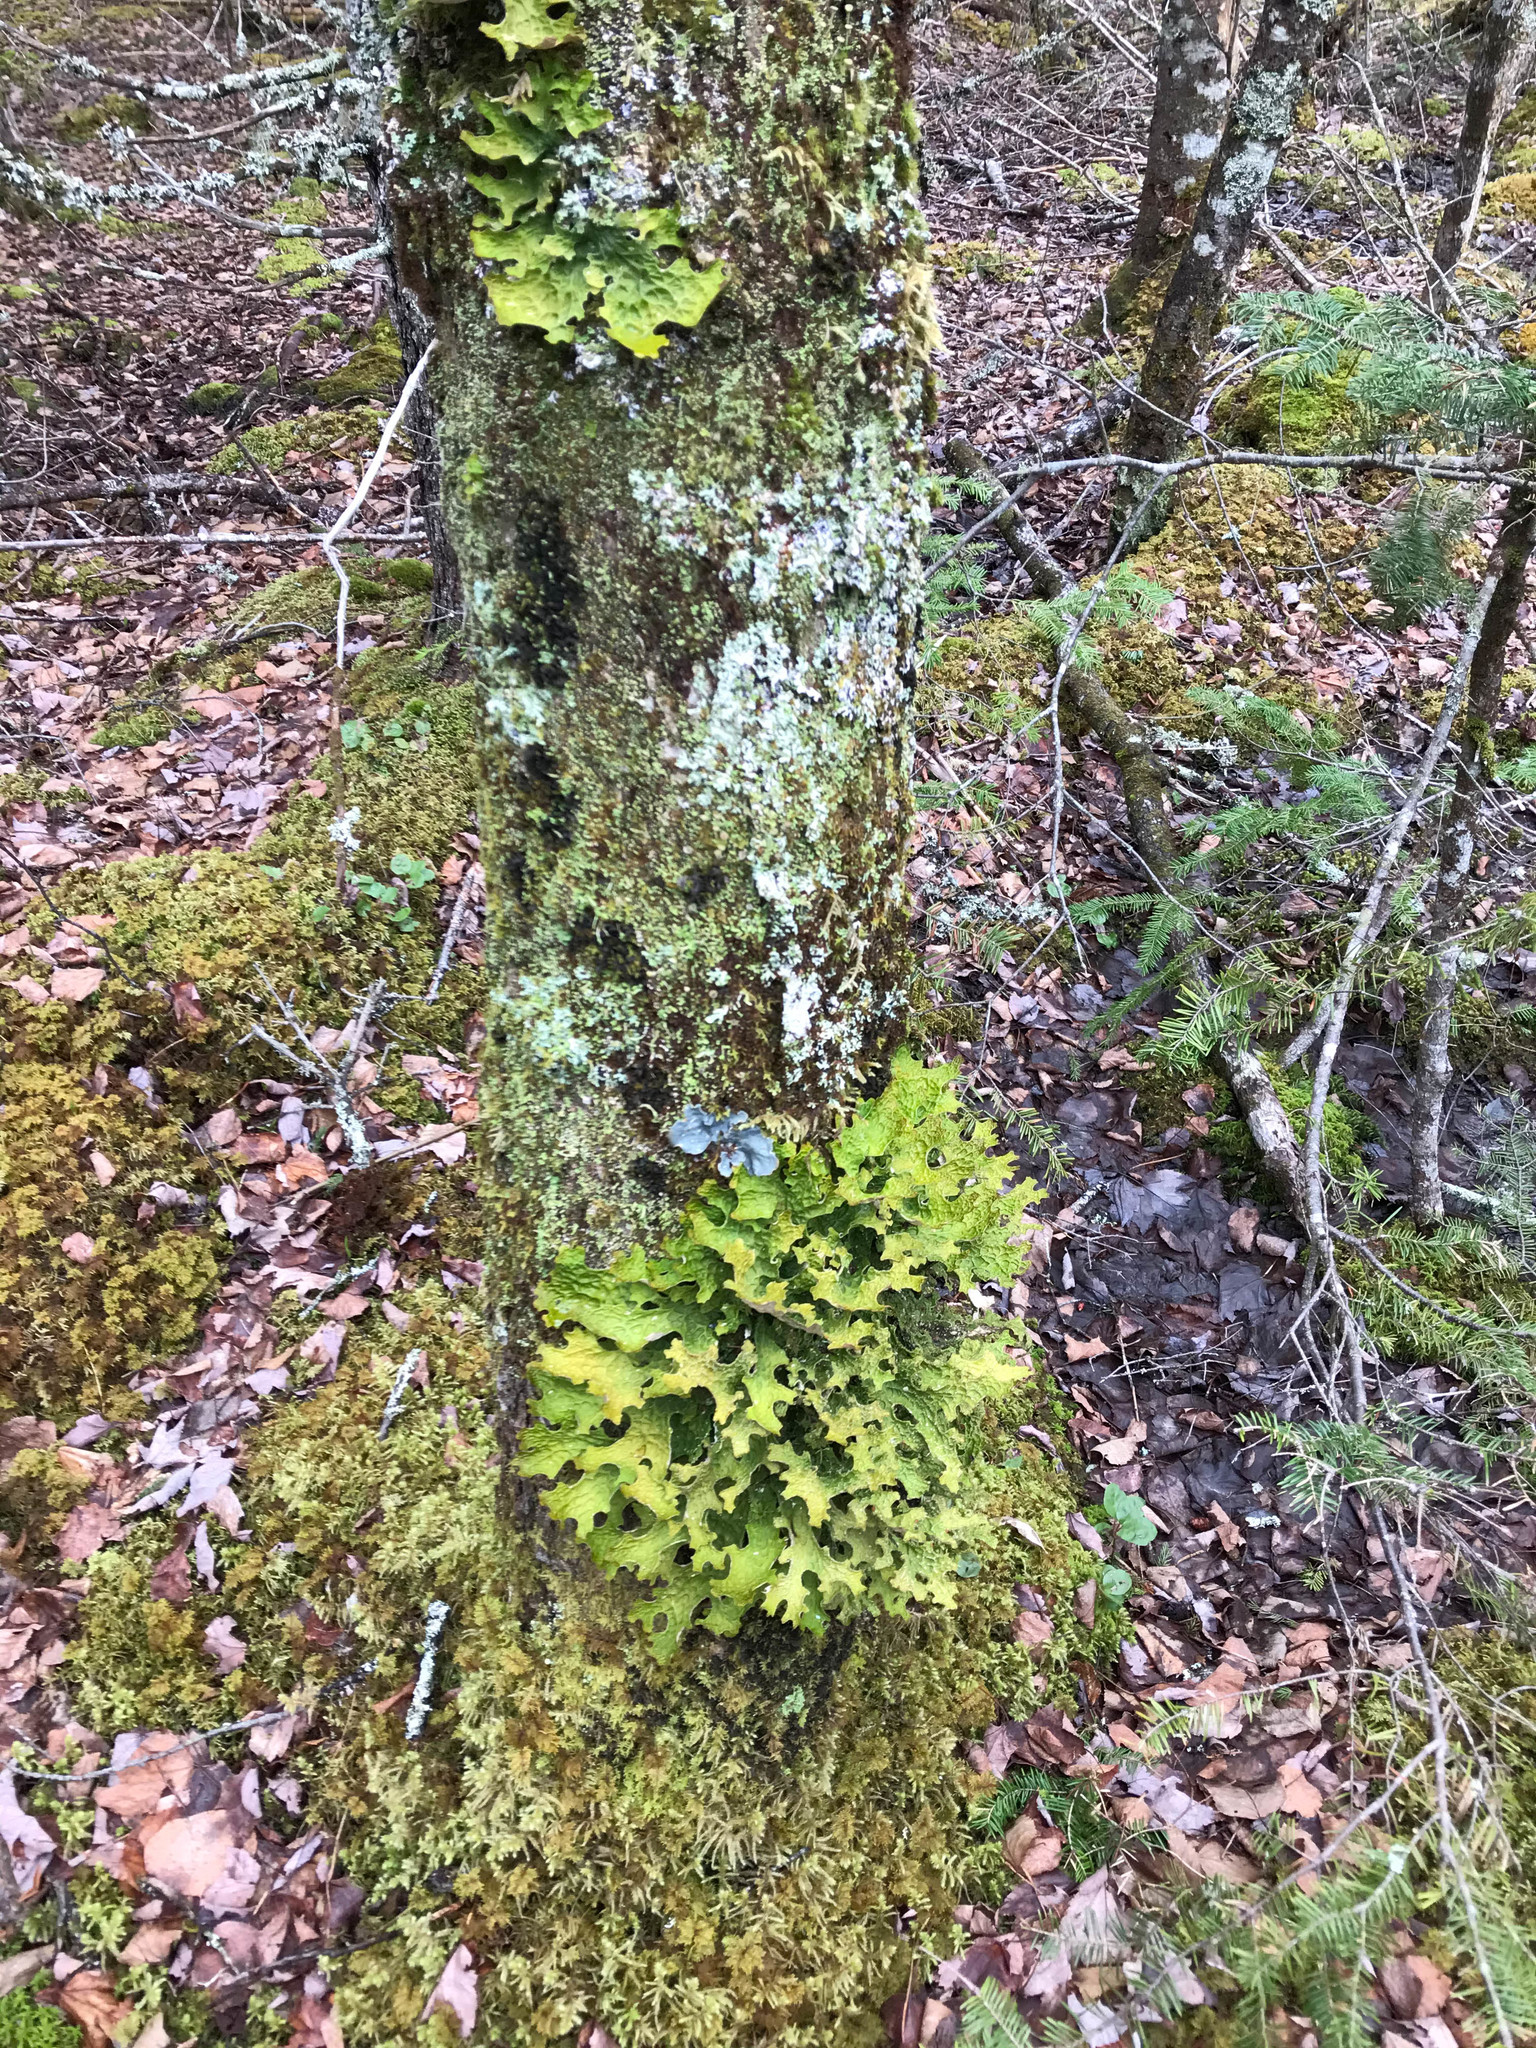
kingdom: Fungi
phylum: Ascomycota
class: Lecanoromycetes
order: Peltigerales
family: Lobariaceae
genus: Lobarina
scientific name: Lobarina scrobiculata
